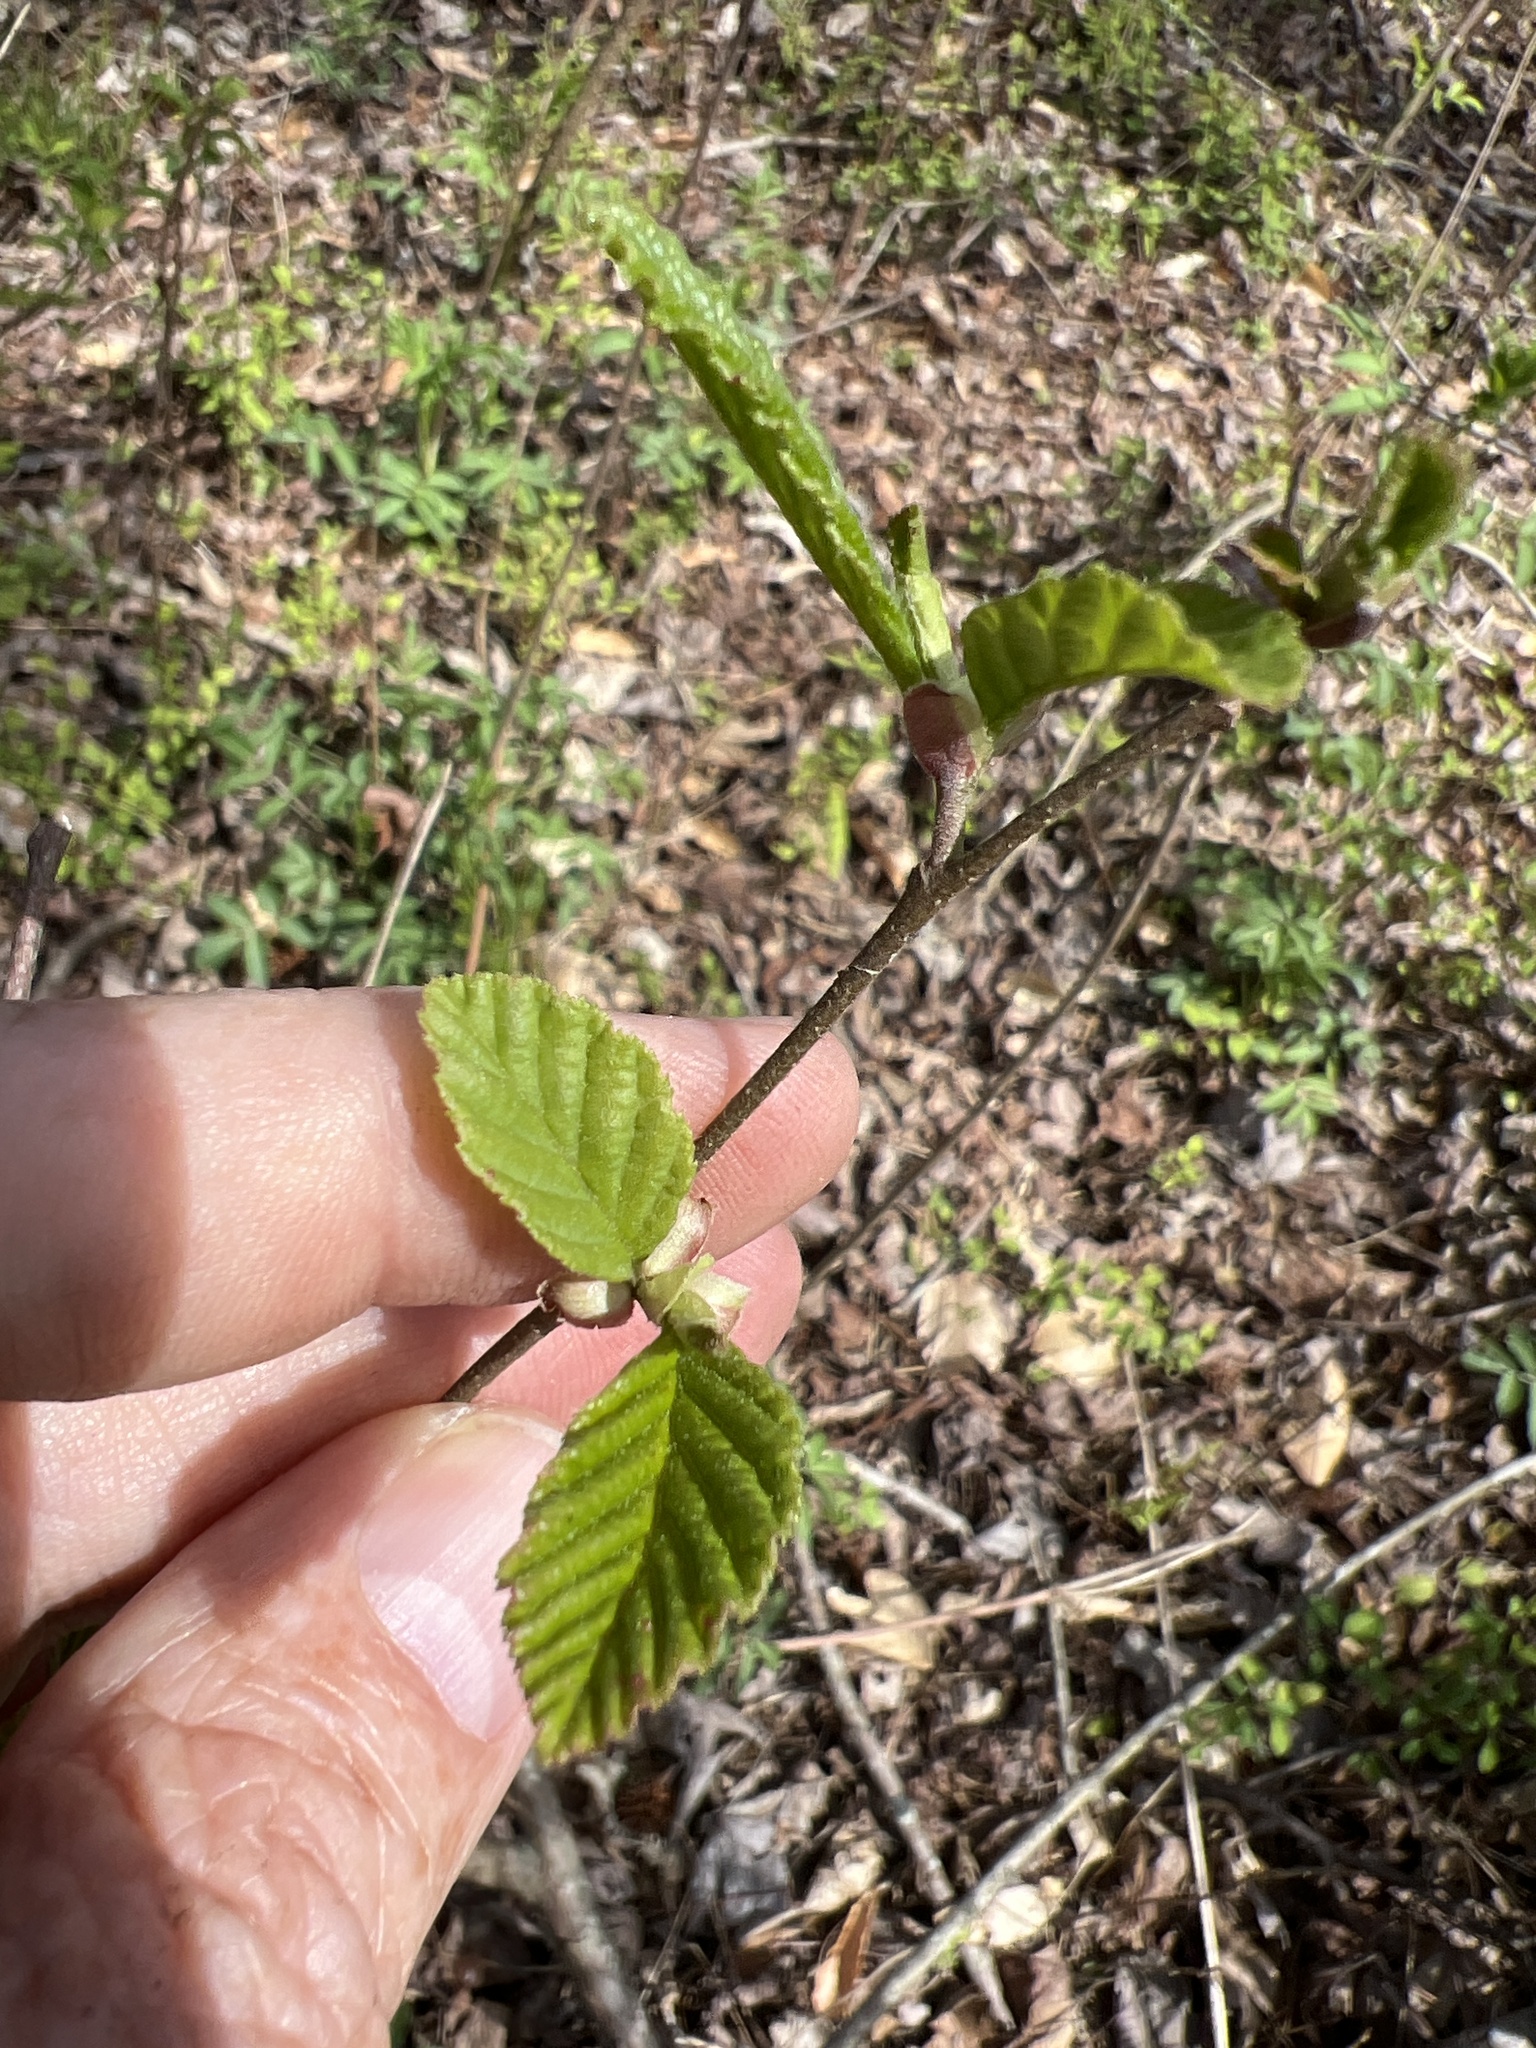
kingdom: Plantae
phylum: Tracheophyta
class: Magnoliopsida
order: Fagales
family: Betulaceae
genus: Alnus
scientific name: Alnus serrulata
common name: Hazel alder
